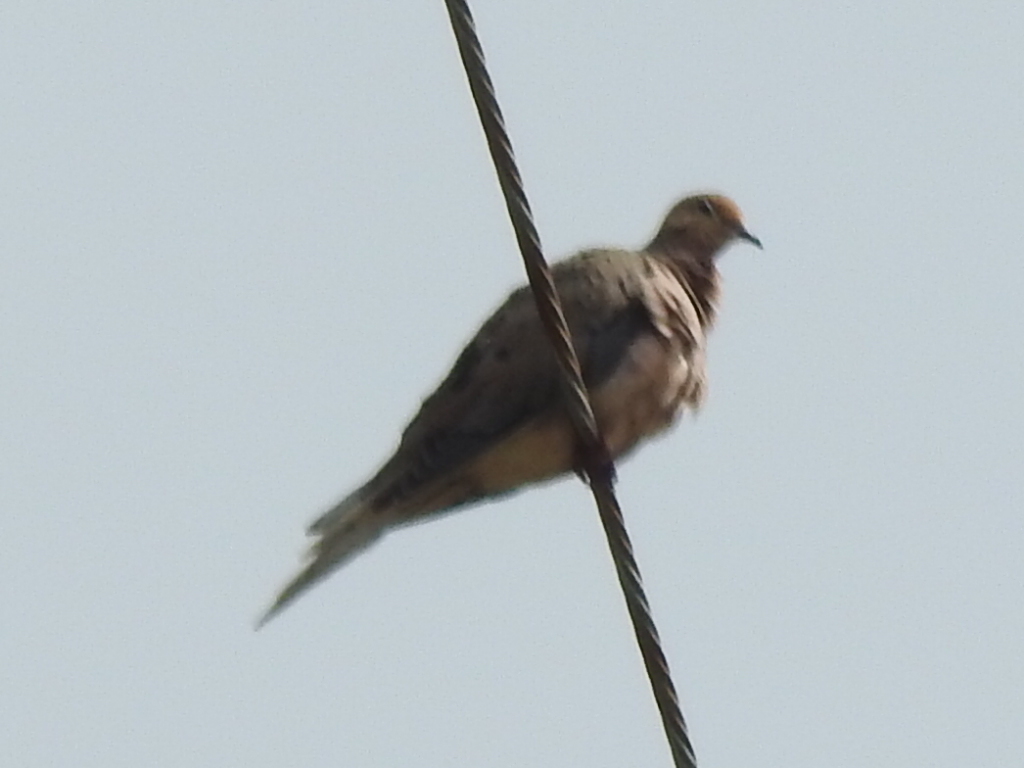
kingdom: Animalia
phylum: Chordata
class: Aves
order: Columbiformes
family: Columbidae
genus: Zenaida
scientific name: Zenaida macroura
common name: Mourning dove
